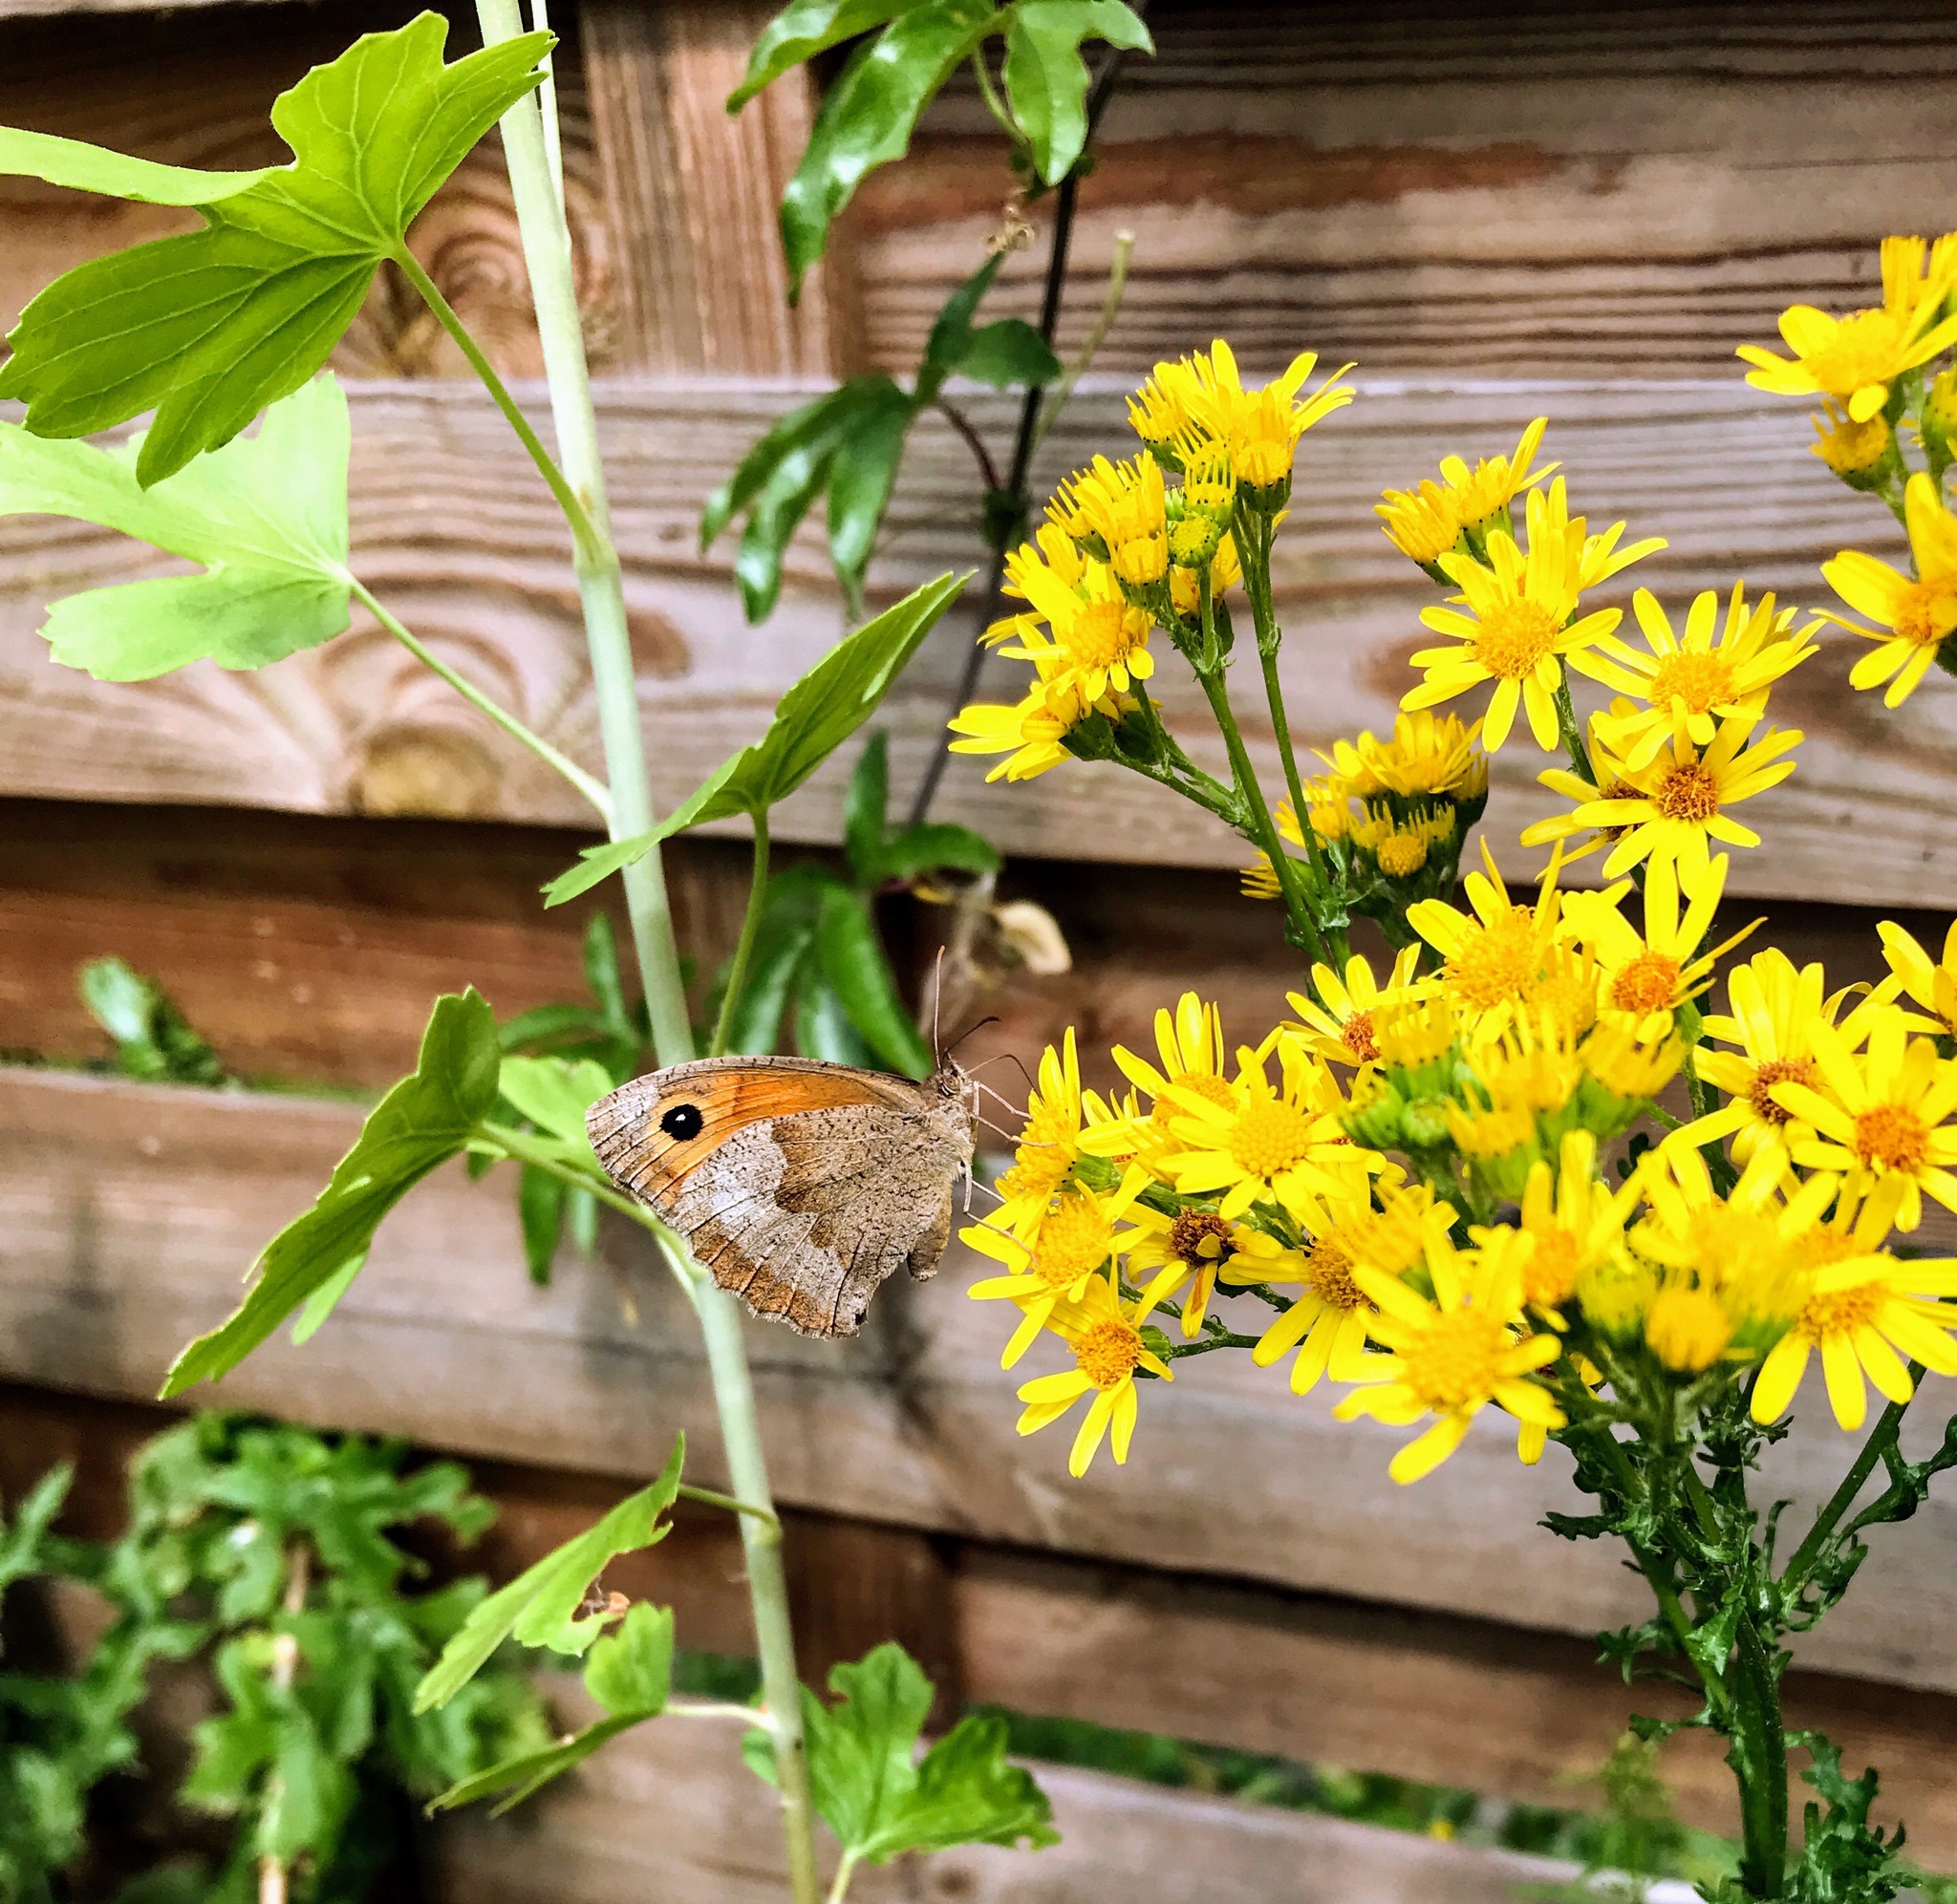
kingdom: Animalia
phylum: Arthropoda
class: Insecta
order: Lepidoptera
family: Nymphalidae
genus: Maniola
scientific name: Maniola jurtina
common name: Meadow brown
